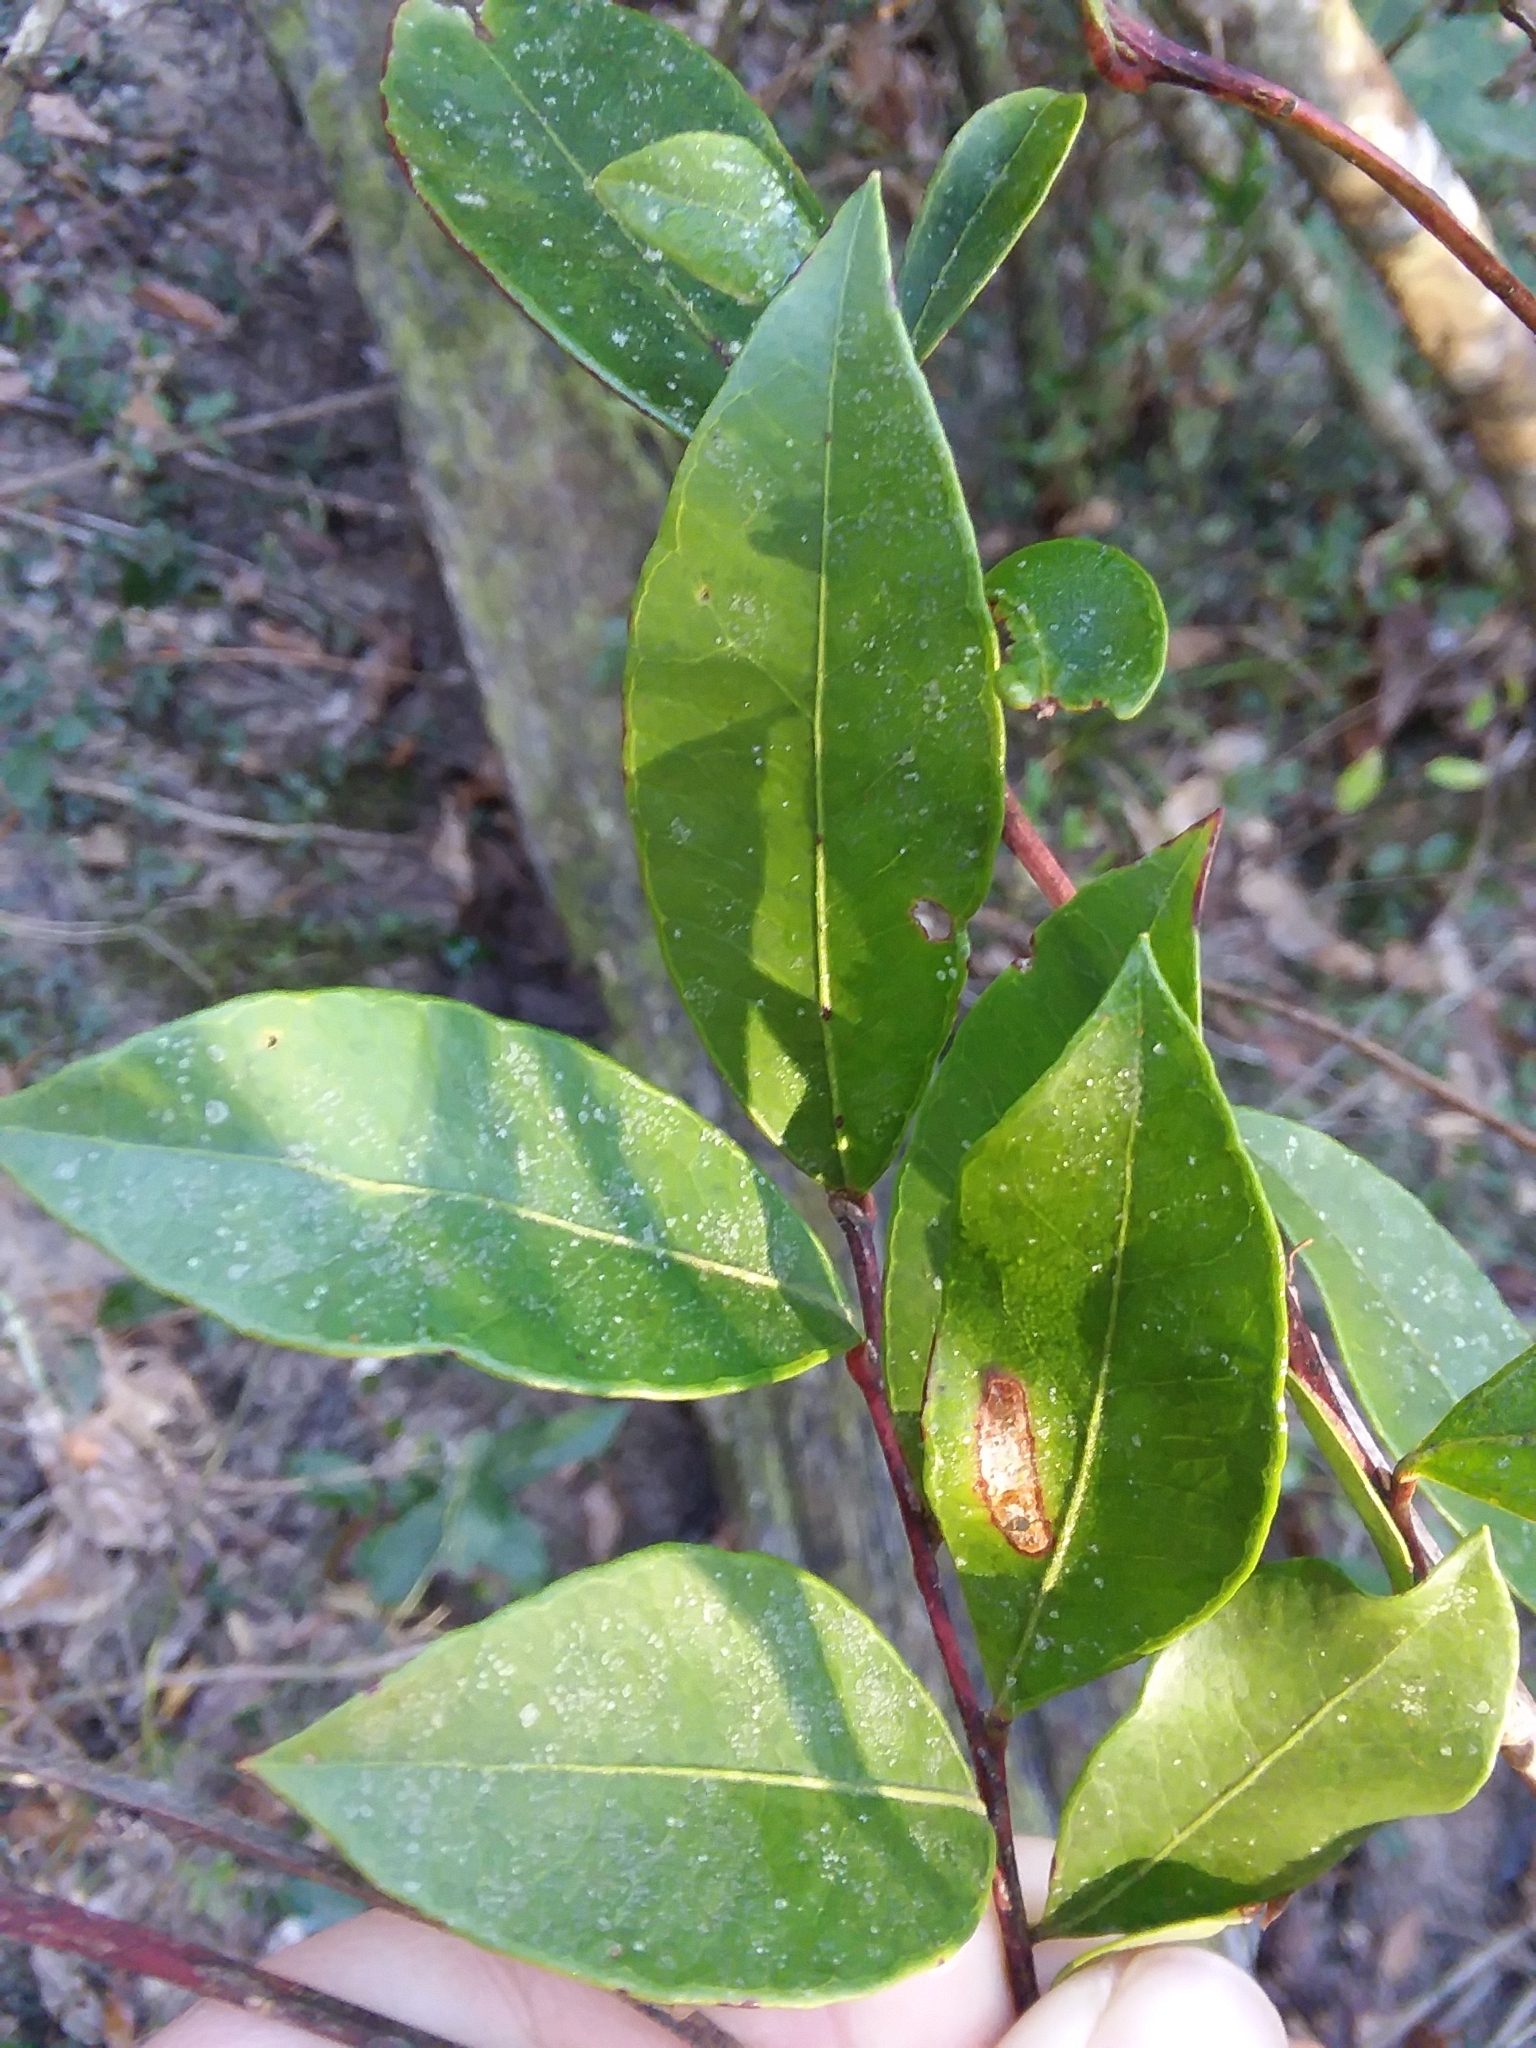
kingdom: Plantae
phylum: Tracheophyta
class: Magnoliopsida
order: Ericales
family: Ericaceae
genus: Lyonia
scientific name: Lyonia lucida
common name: Fetterbush
